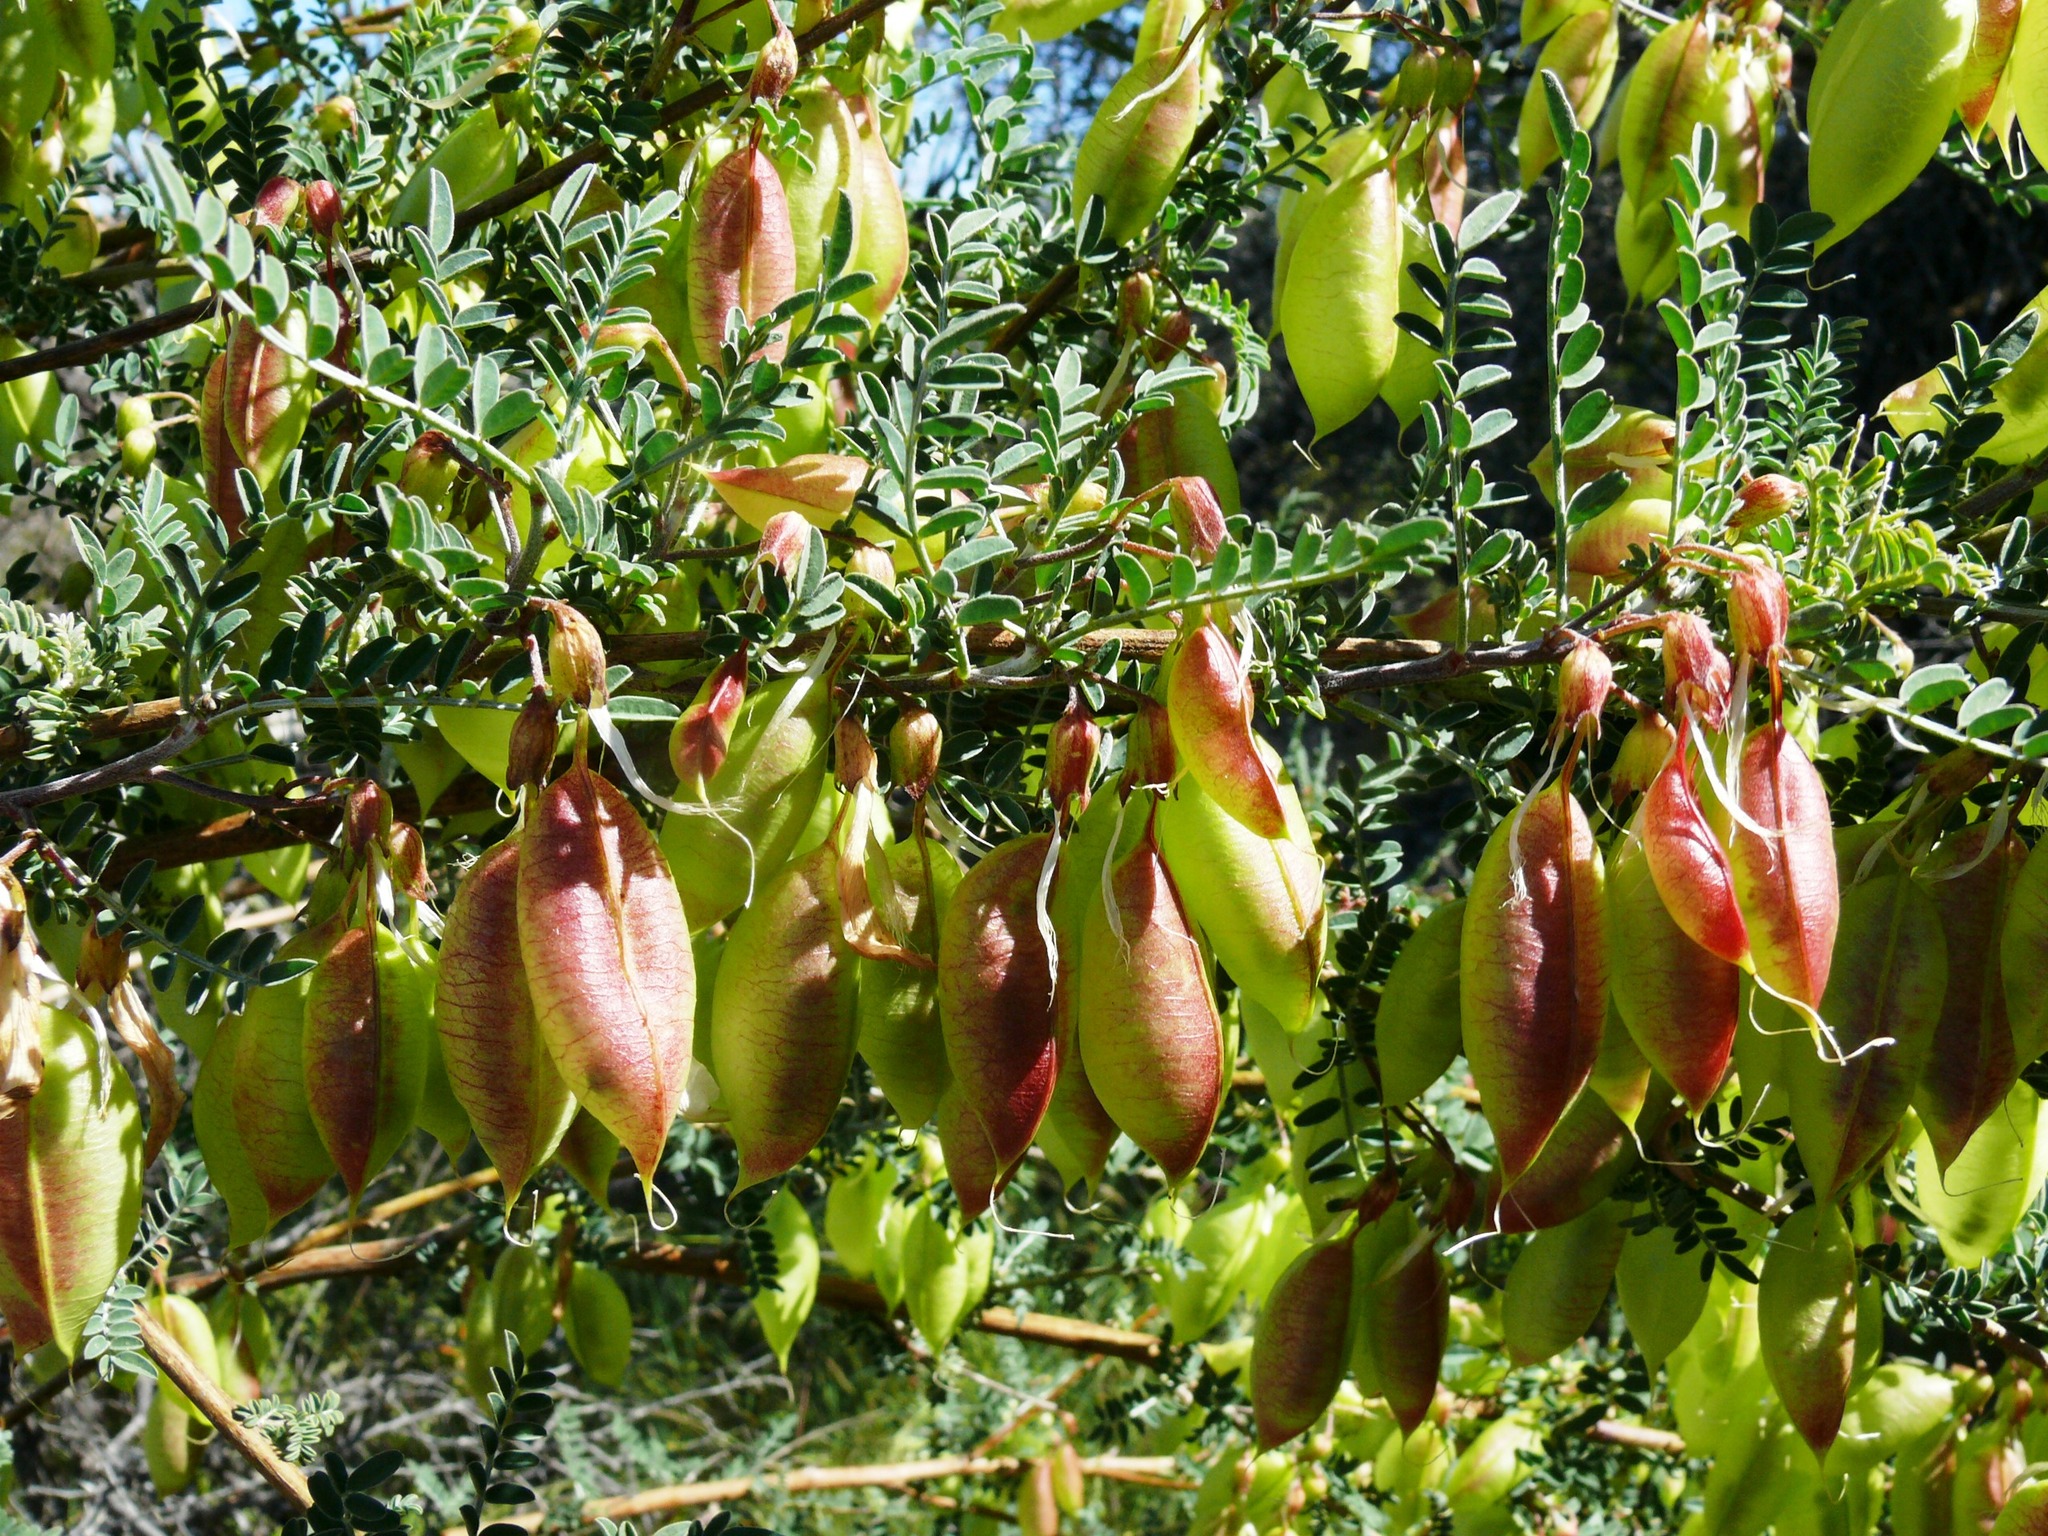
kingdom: Plantae
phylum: Tracheophyta
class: Magnoliopsida
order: Fabales
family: Fabaceae
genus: Lessertia
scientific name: Lessertia frutescens
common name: Balloon-pea
